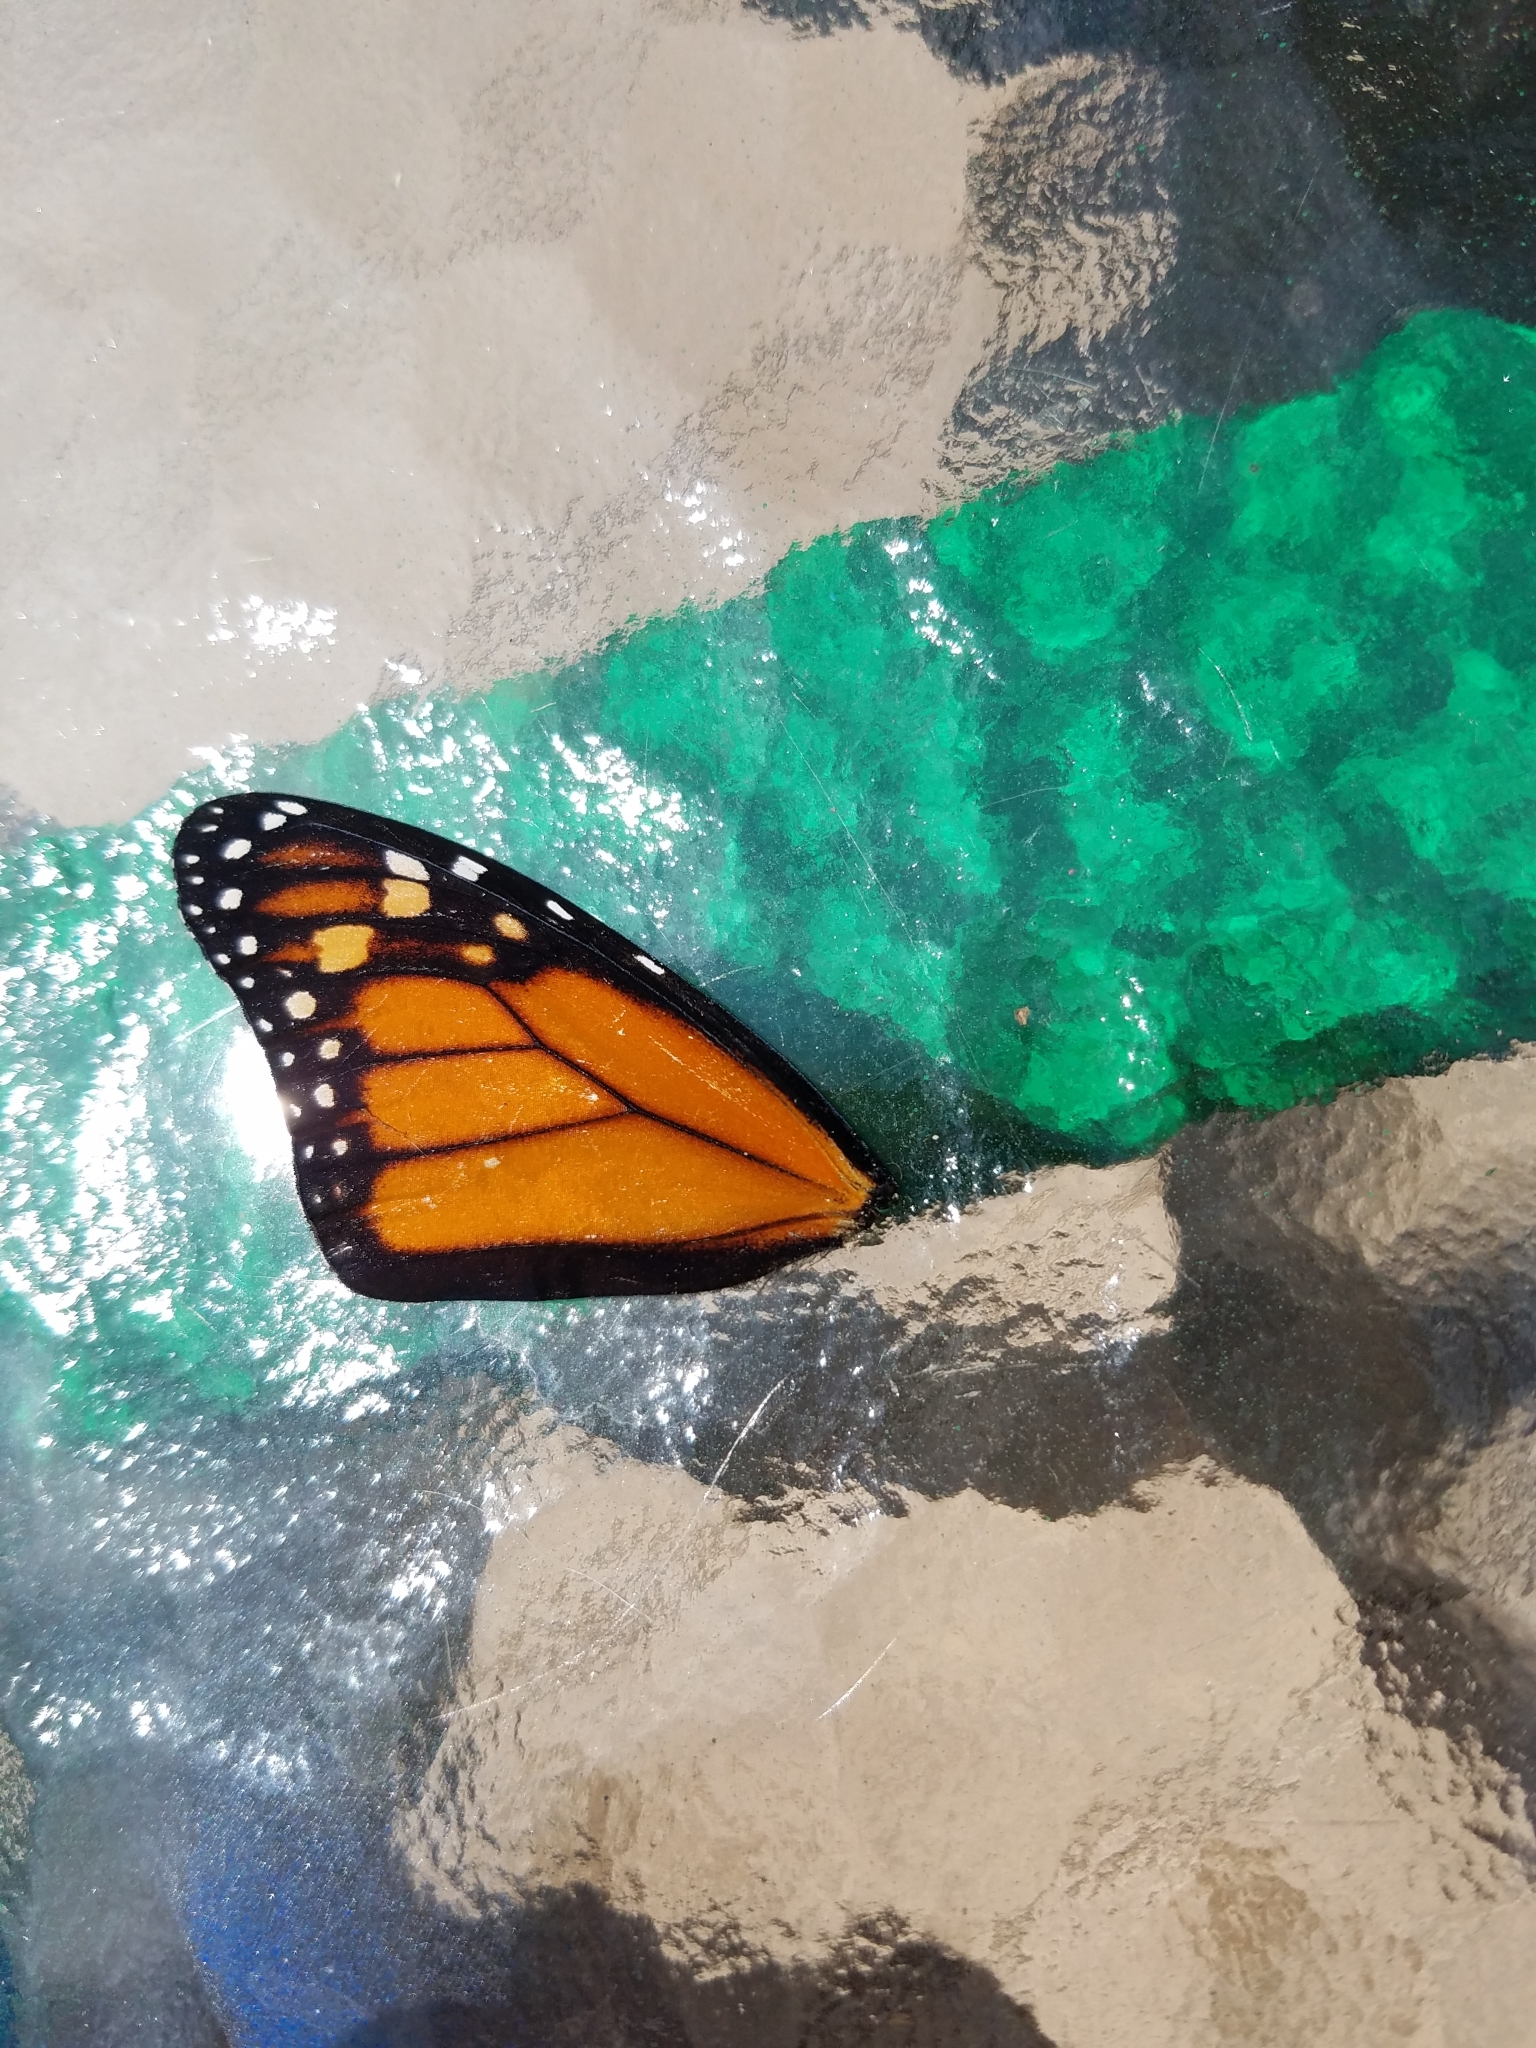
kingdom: Animalia
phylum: Arthropoda
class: Insecta
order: Lepidoptera
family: Nymphalidae
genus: Danaus
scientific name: Danaus plexippus
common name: Monarch
